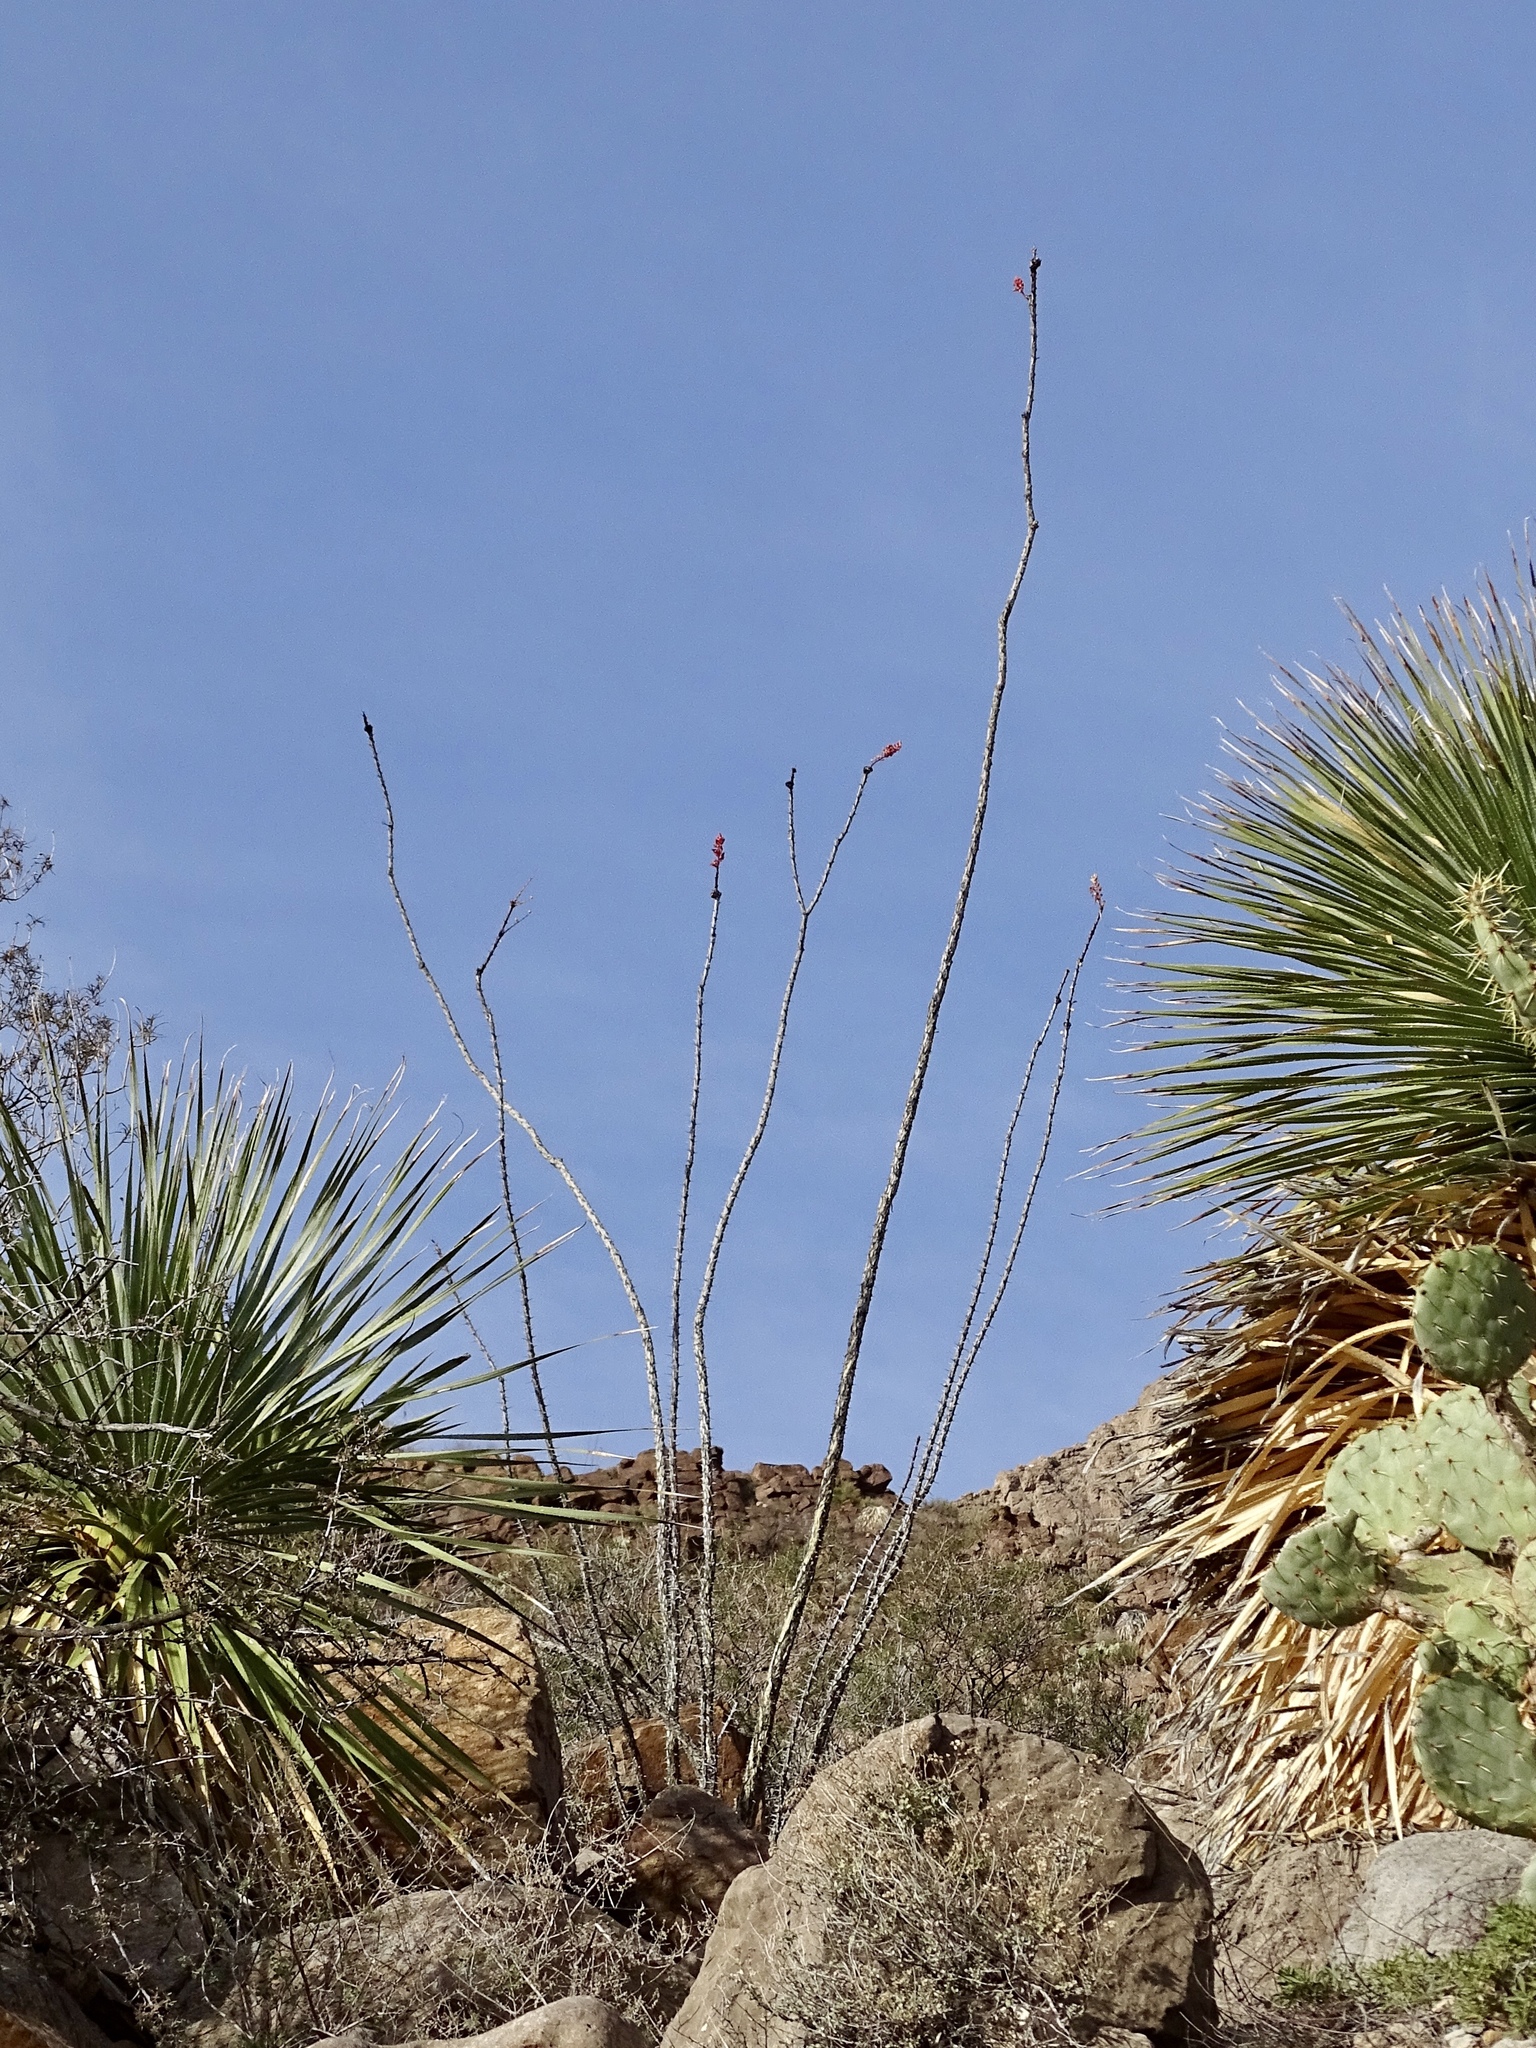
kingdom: Plantae
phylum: Tracheophyta
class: Magnoliopsida
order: Ericales
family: Fouquieriaceae
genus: Fouquieria
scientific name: Fouquieria splendens
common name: Vine-cactus
